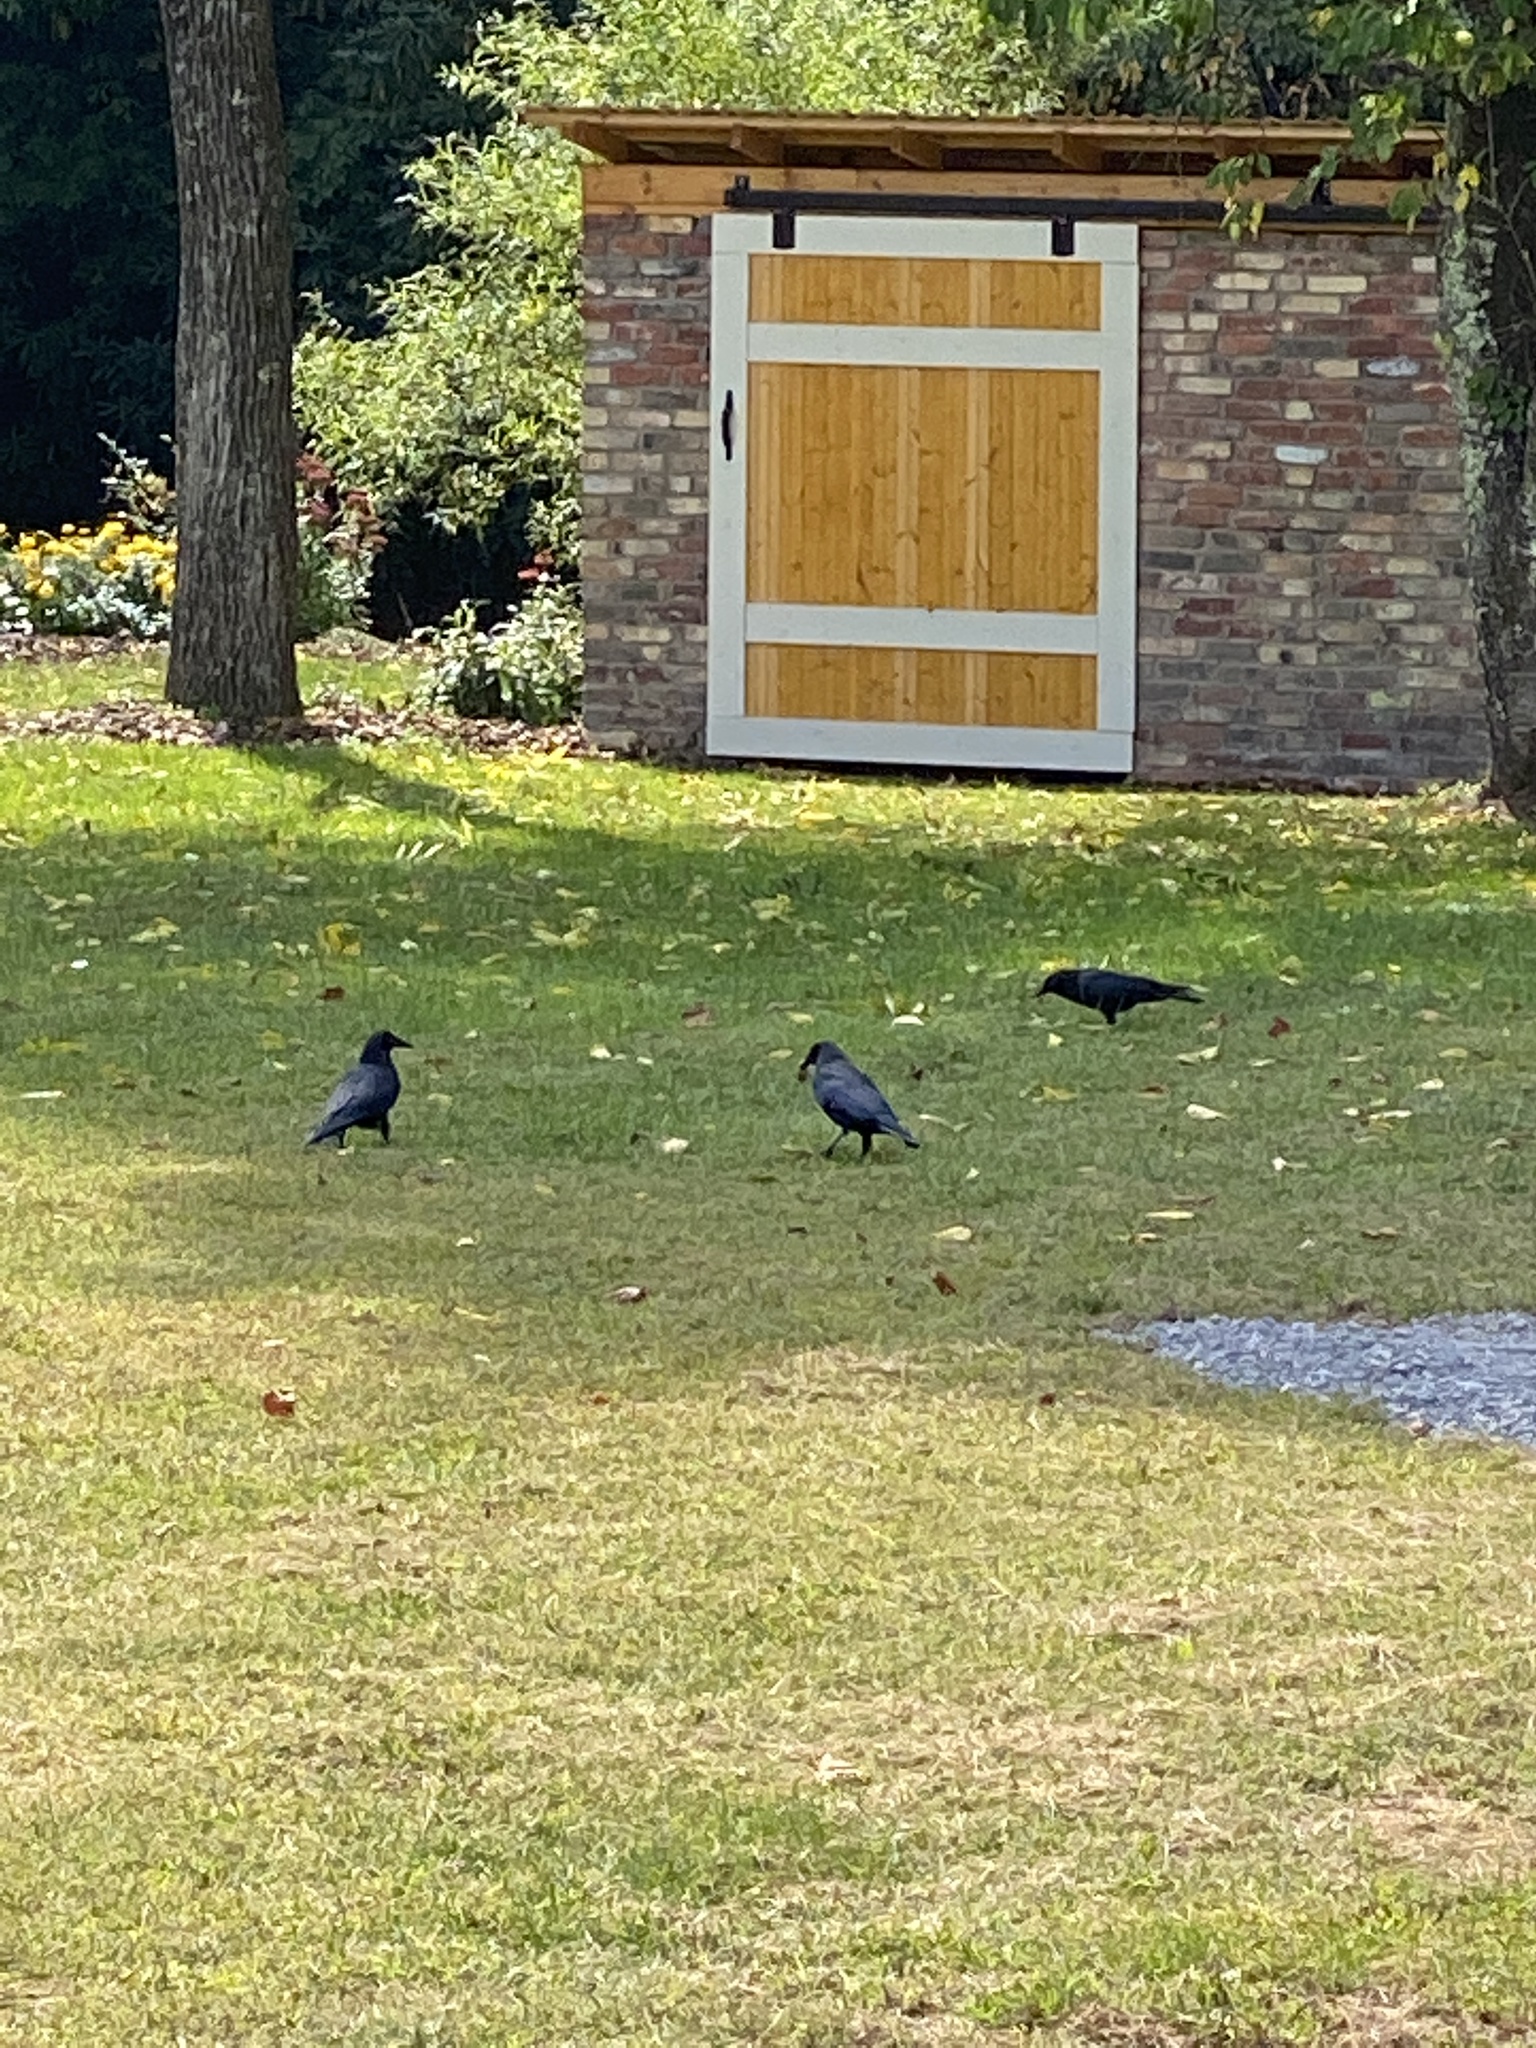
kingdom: Animalia
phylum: Chordata
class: Aves
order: Passeriformes
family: Corvidae
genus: Corvus
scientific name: Corvus brachyrhynchos
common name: American crow
